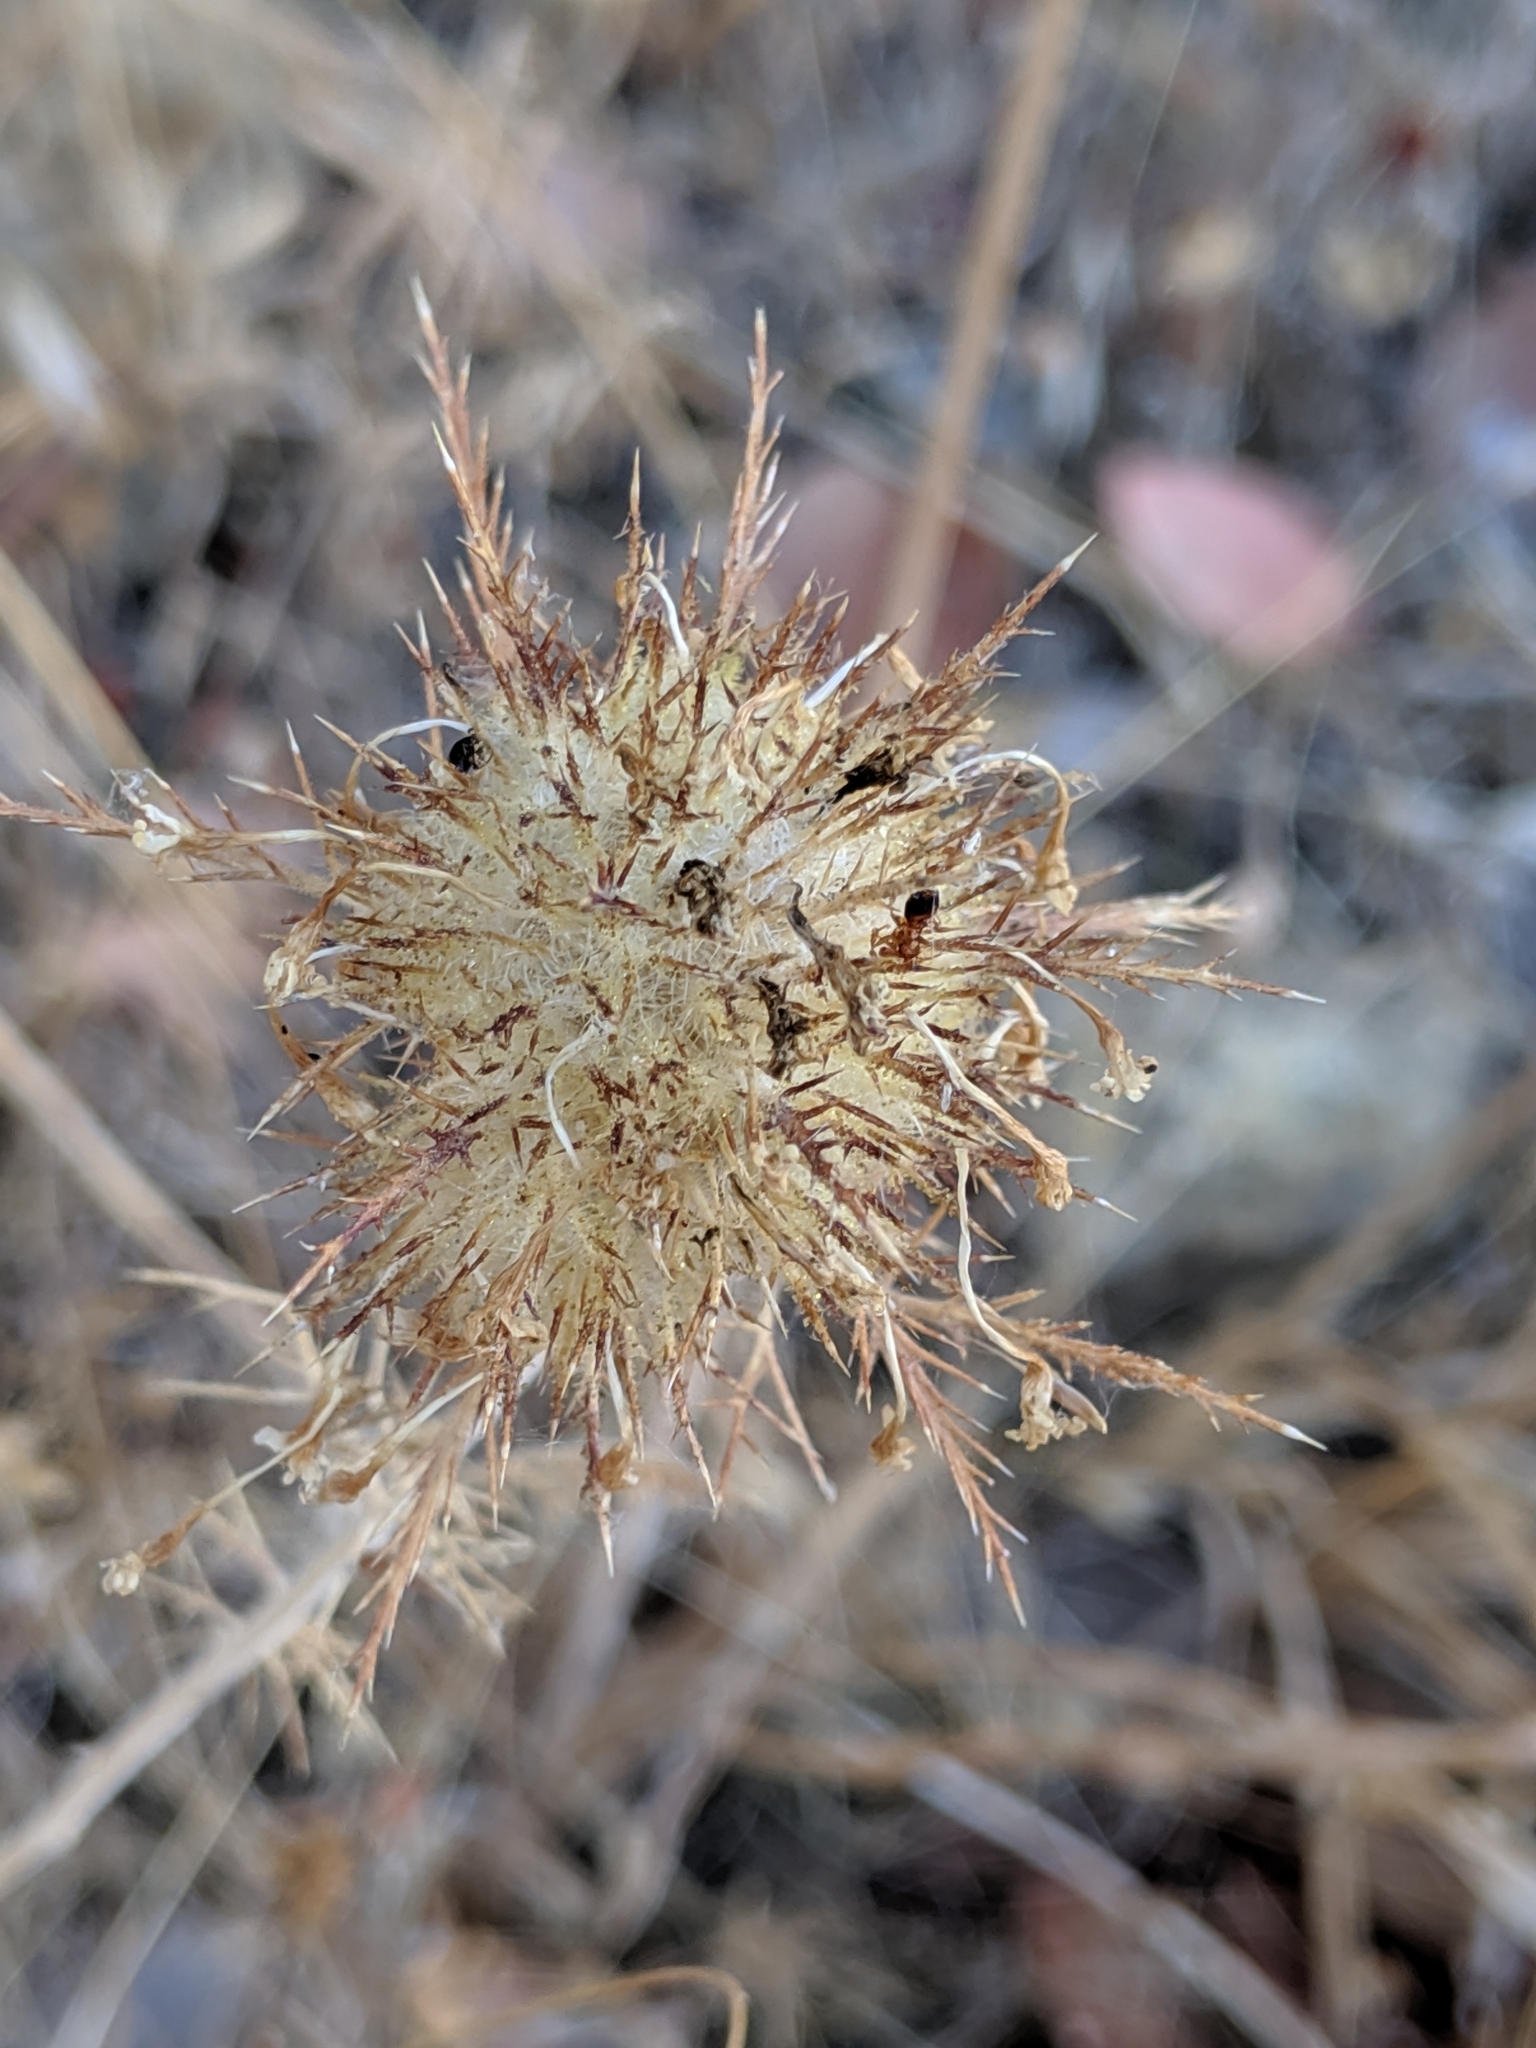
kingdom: Plantae
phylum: Tracheophyta
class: Magnoliopsida
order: Ericales
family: Polemoniaceae
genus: Navarretia
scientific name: Navarretia pubescens
